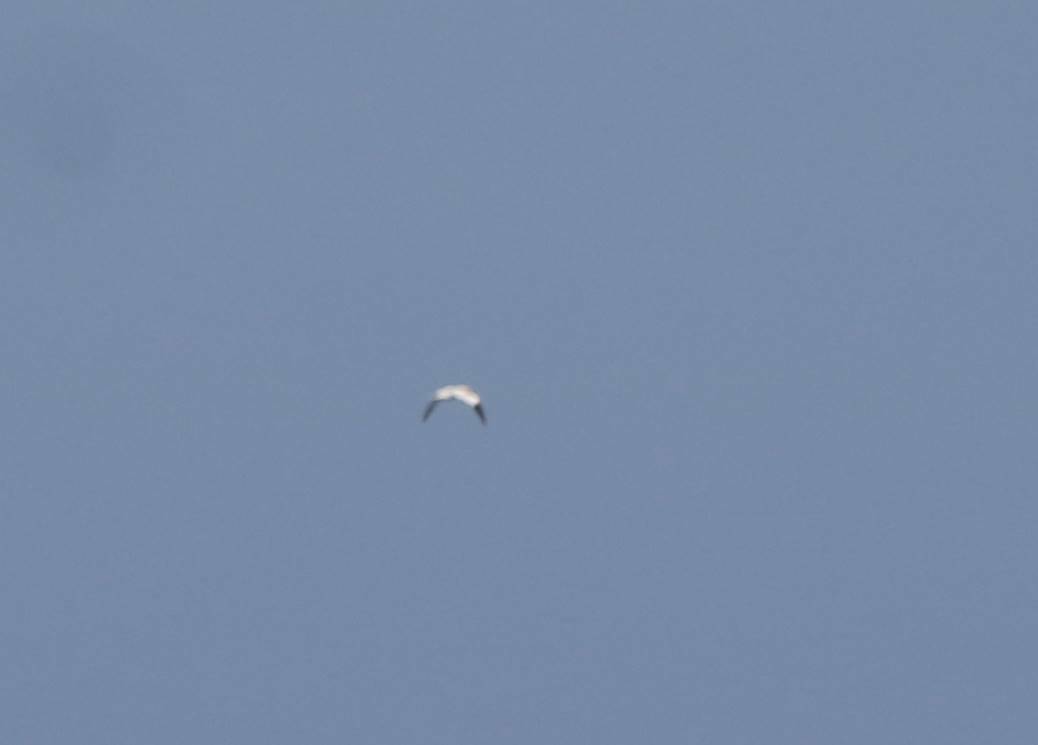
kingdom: Animalia
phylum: Chordata
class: Aves
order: Suliformes
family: Sulidae
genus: Morus
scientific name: Morus bassanus
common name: Northern gannet
